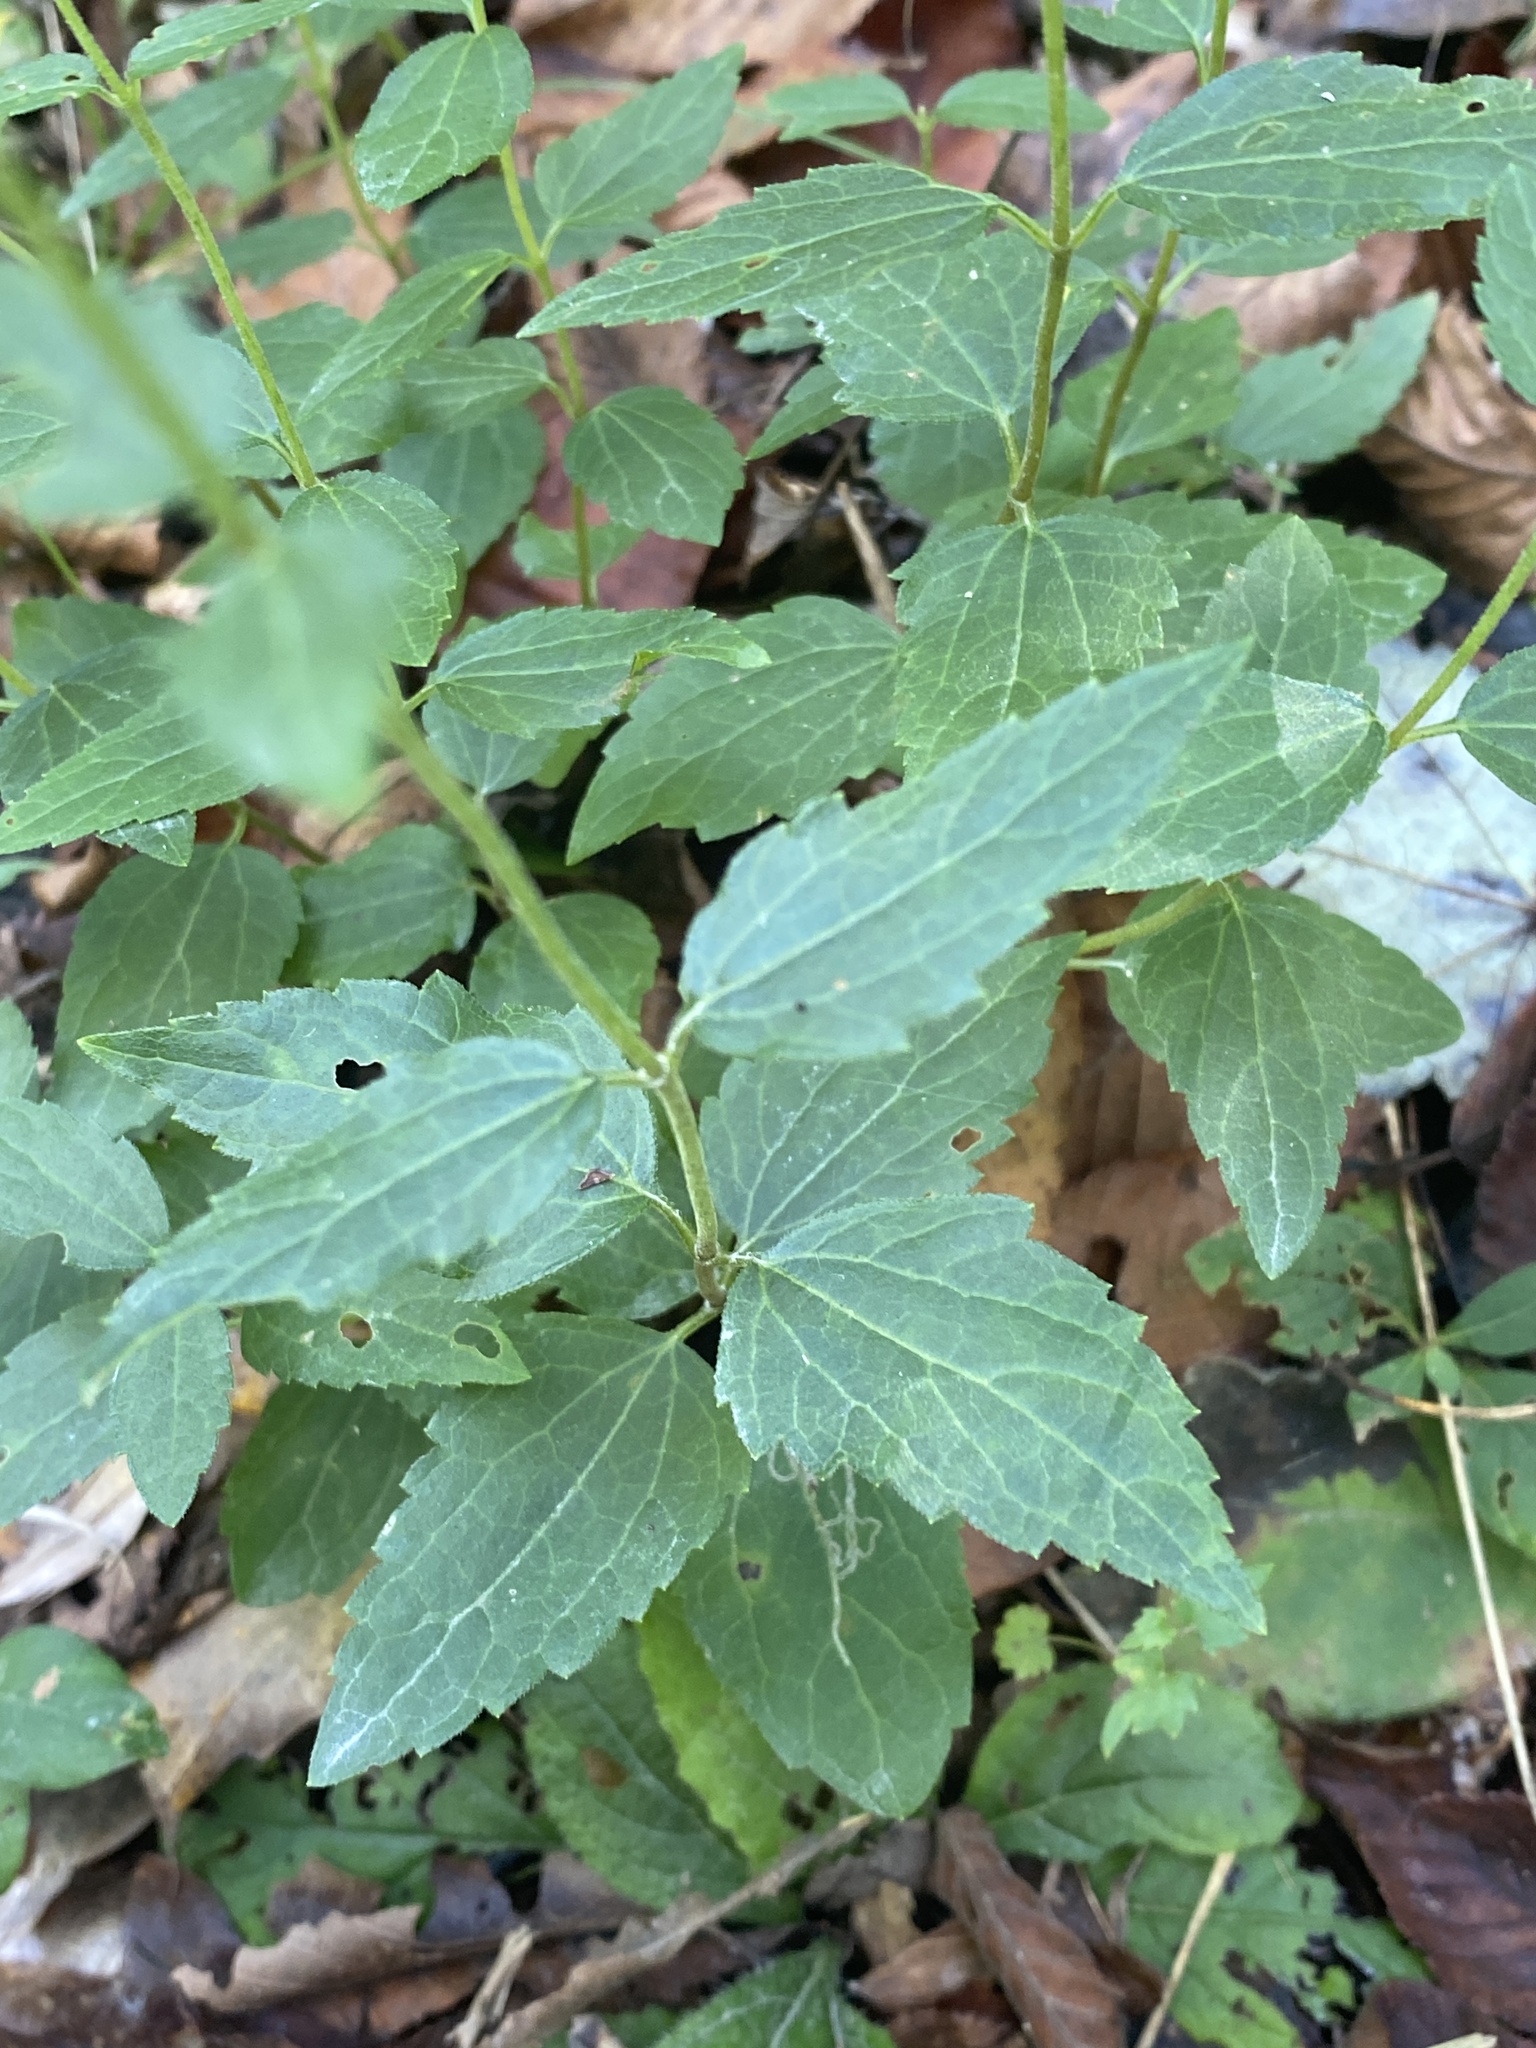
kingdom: Plantae
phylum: Tracheophyta
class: Magnoliopsida
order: Asterales
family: Asteraceae
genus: Ageratina
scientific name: Ageratina aromatica
